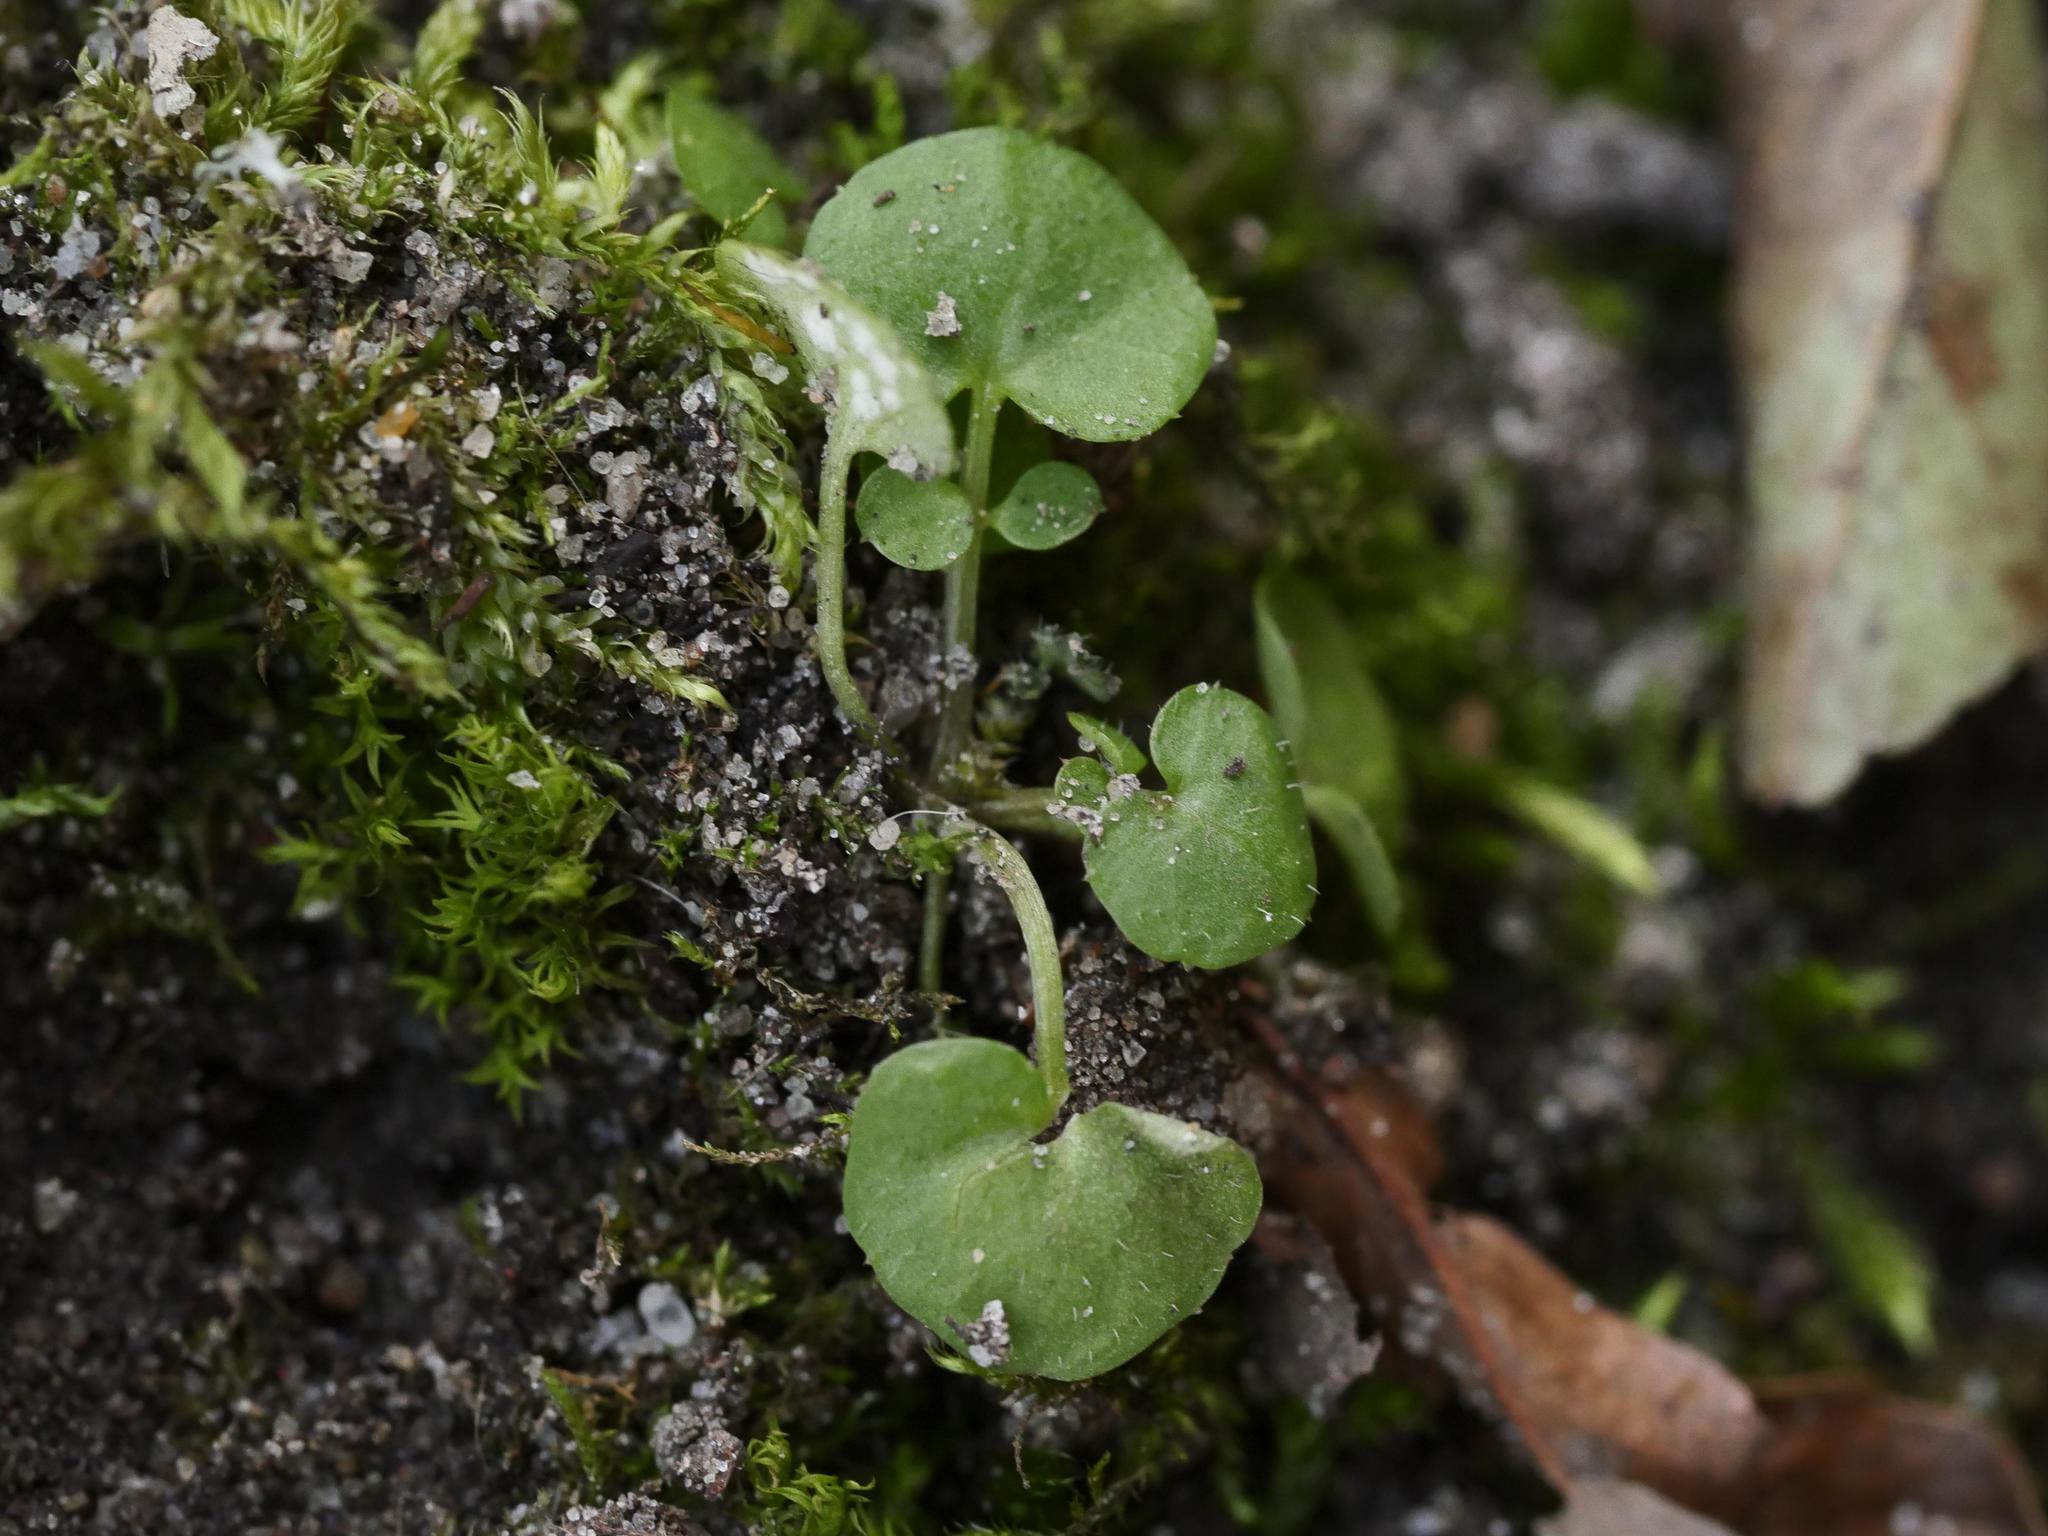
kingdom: Plantae
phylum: Tracheophyta
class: Magnoliopsida
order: Brassicales
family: Brassicaceae
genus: Cardamine
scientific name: Cardamine hirsuta
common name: Hairy bittercress
